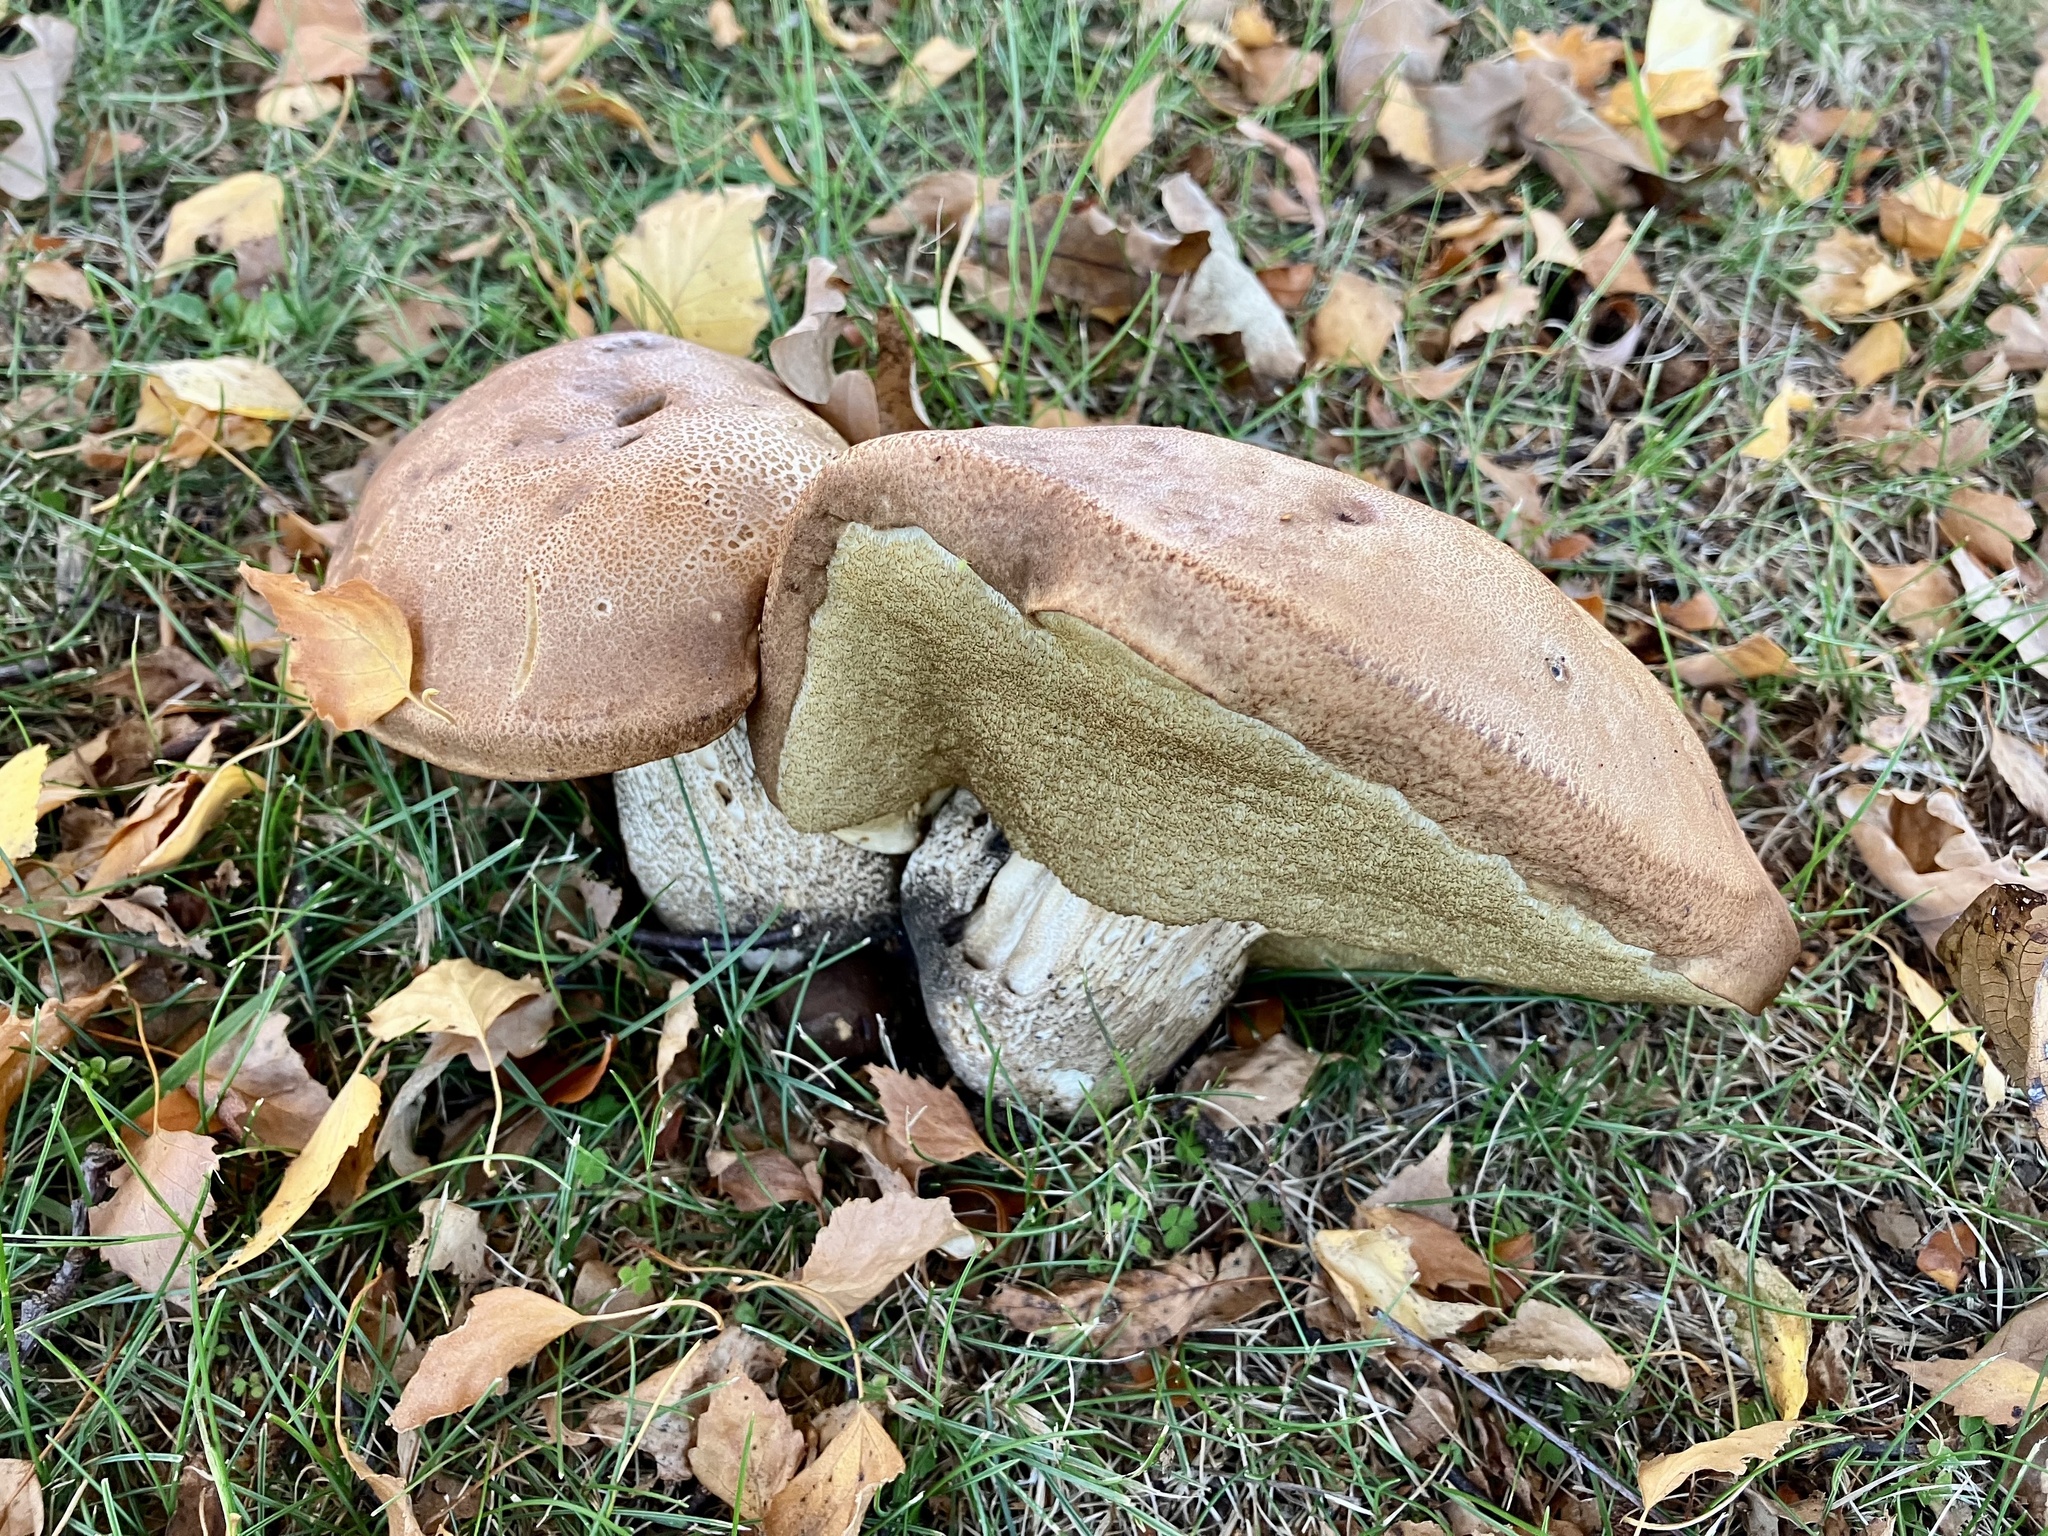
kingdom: Fungi
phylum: Basidiomycota
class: Agaricomycetes
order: Boletales
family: Boletaceae
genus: Leccinum
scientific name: Leccinum scabrum
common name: Blushing bolete
